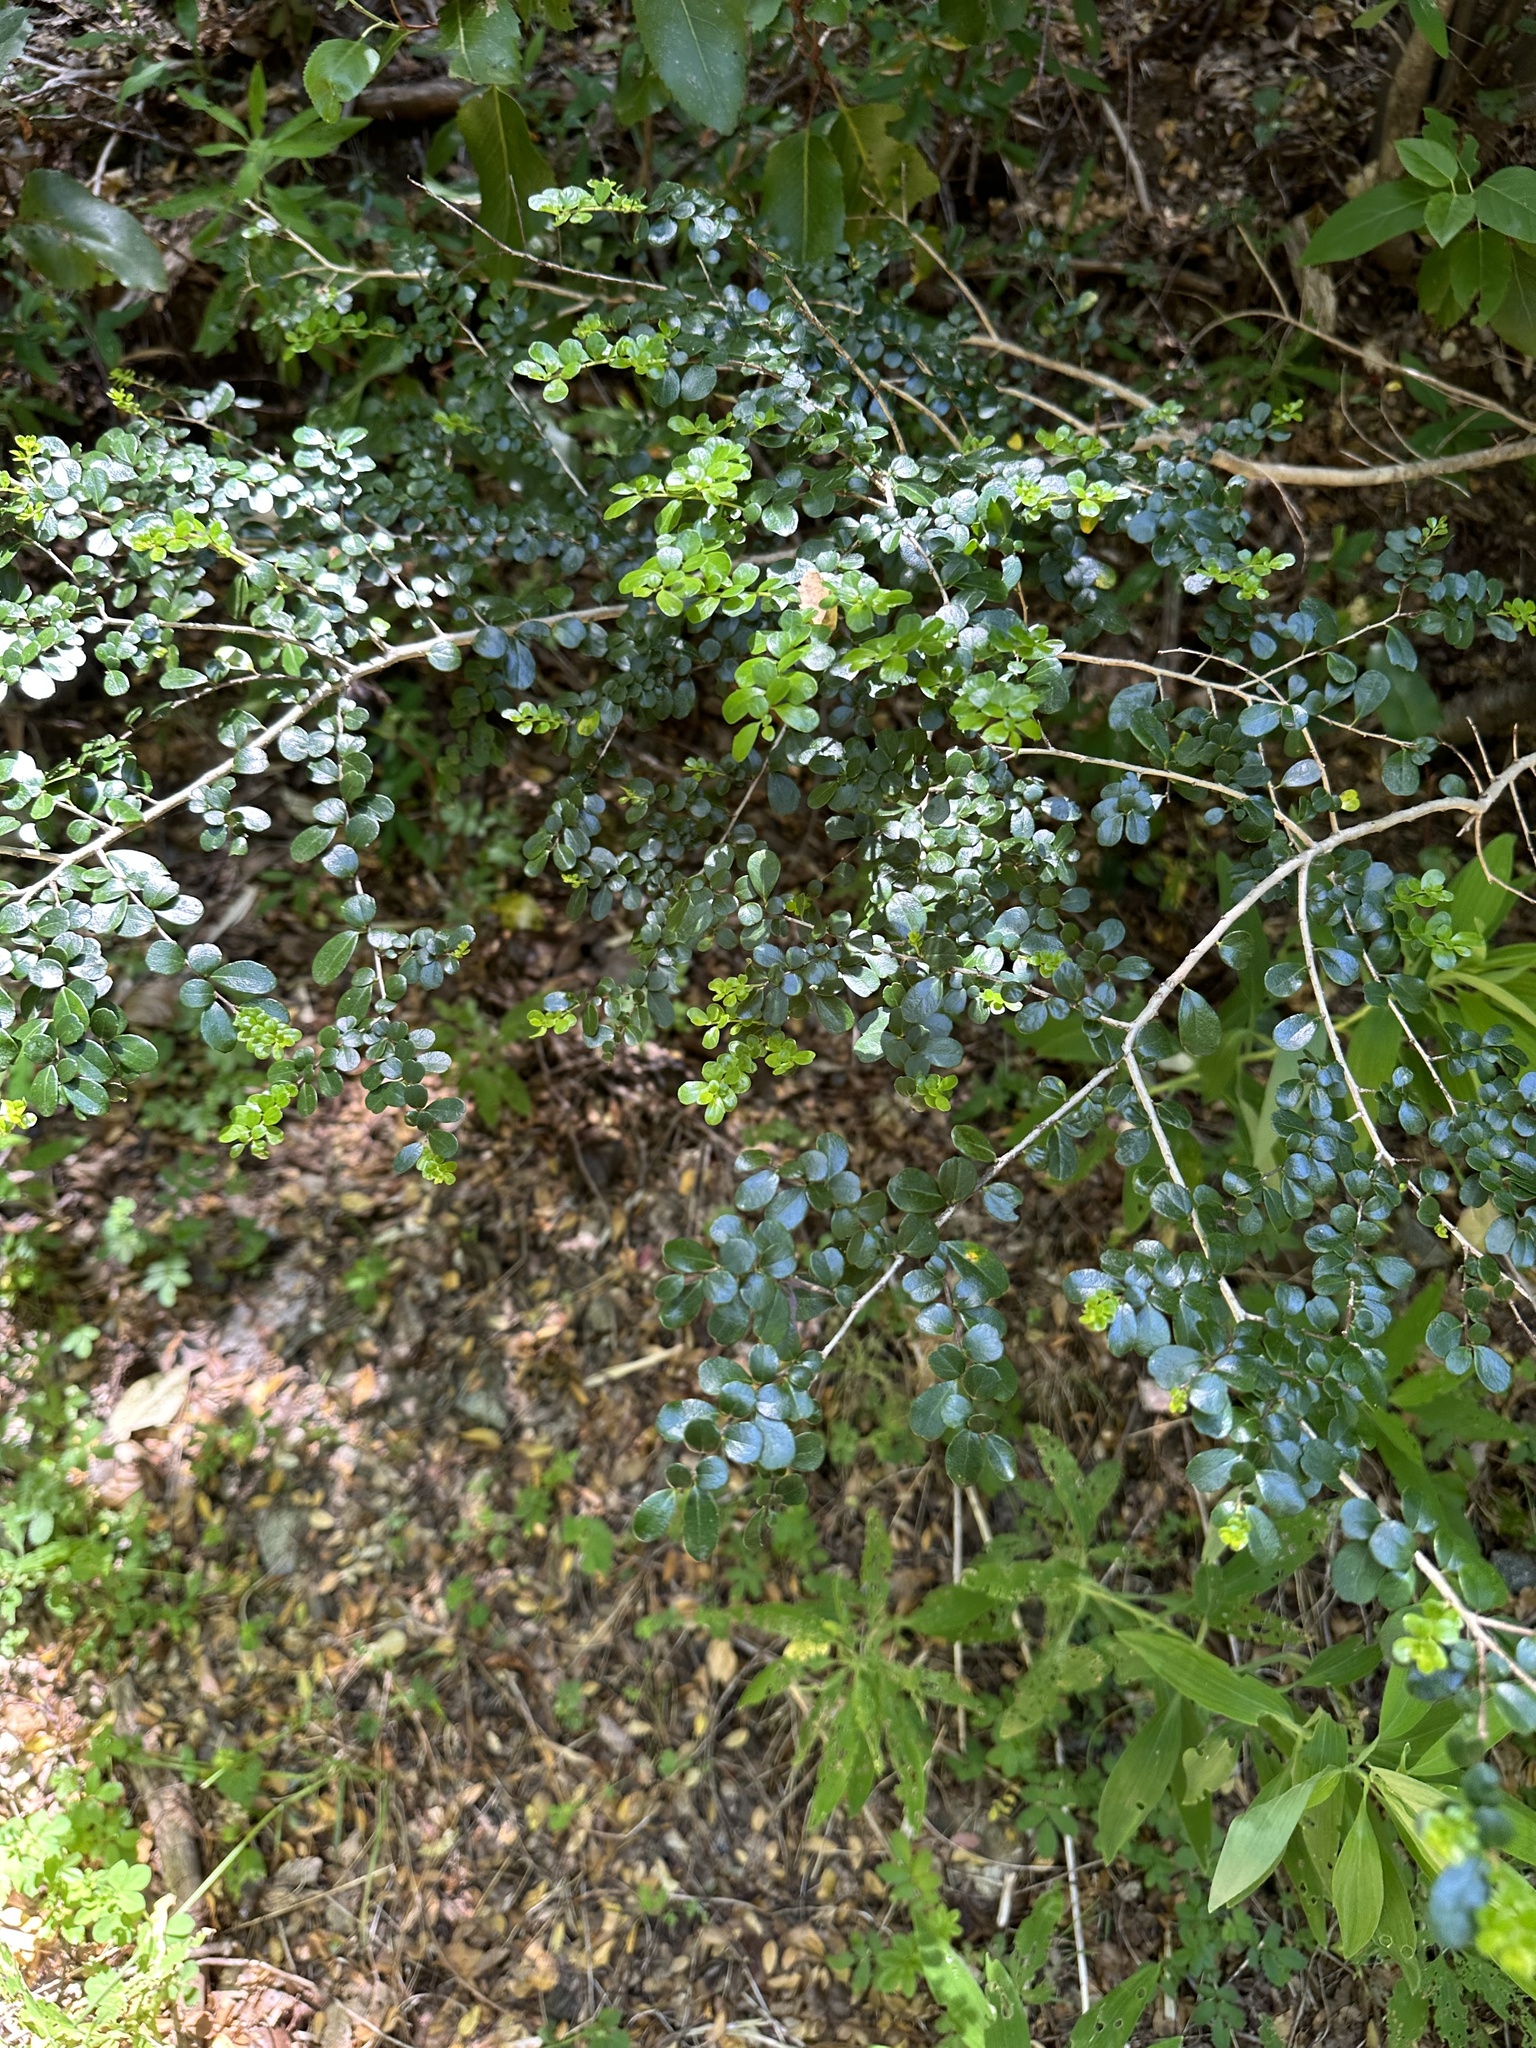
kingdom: Plantae
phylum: Tracheophyta
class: Magnoliopsida
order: Malpighiales
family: Salicaceae
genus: Azara
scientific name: Azara microphylla
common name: Box-leaf azara
